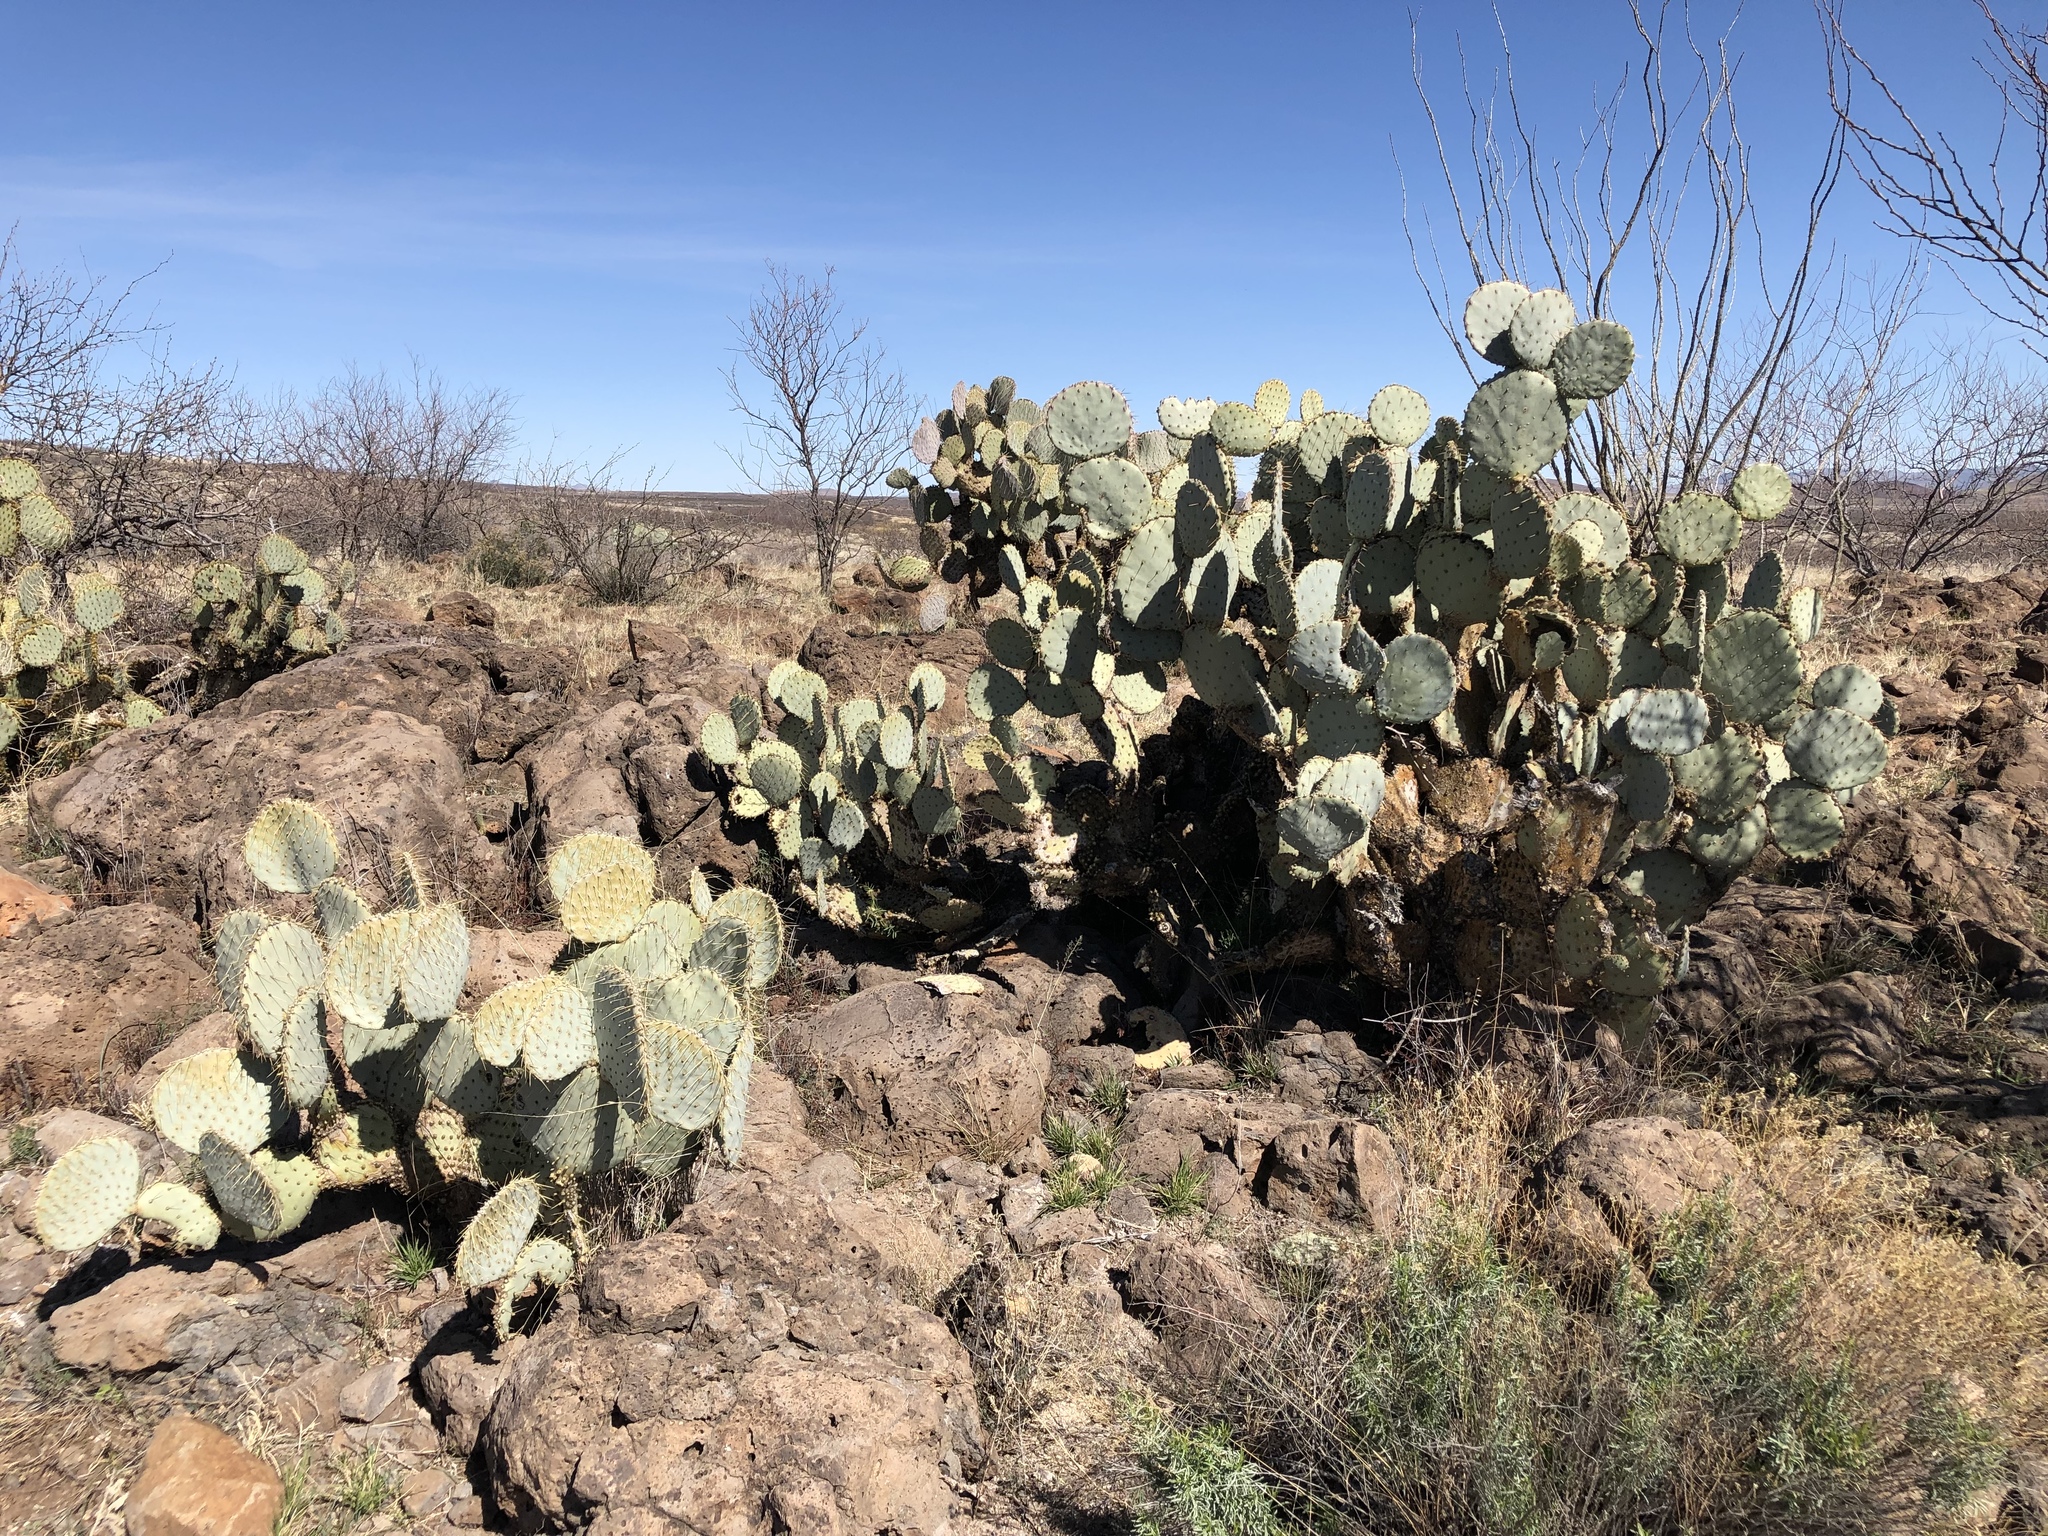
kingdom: Plantae
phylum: Tracheophyta
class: Magnoliopsida
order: Caryophyllales
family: Cactaceae
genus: Opuntia
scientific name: Opuntia gosseliniana
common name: Violet prickly-pear
